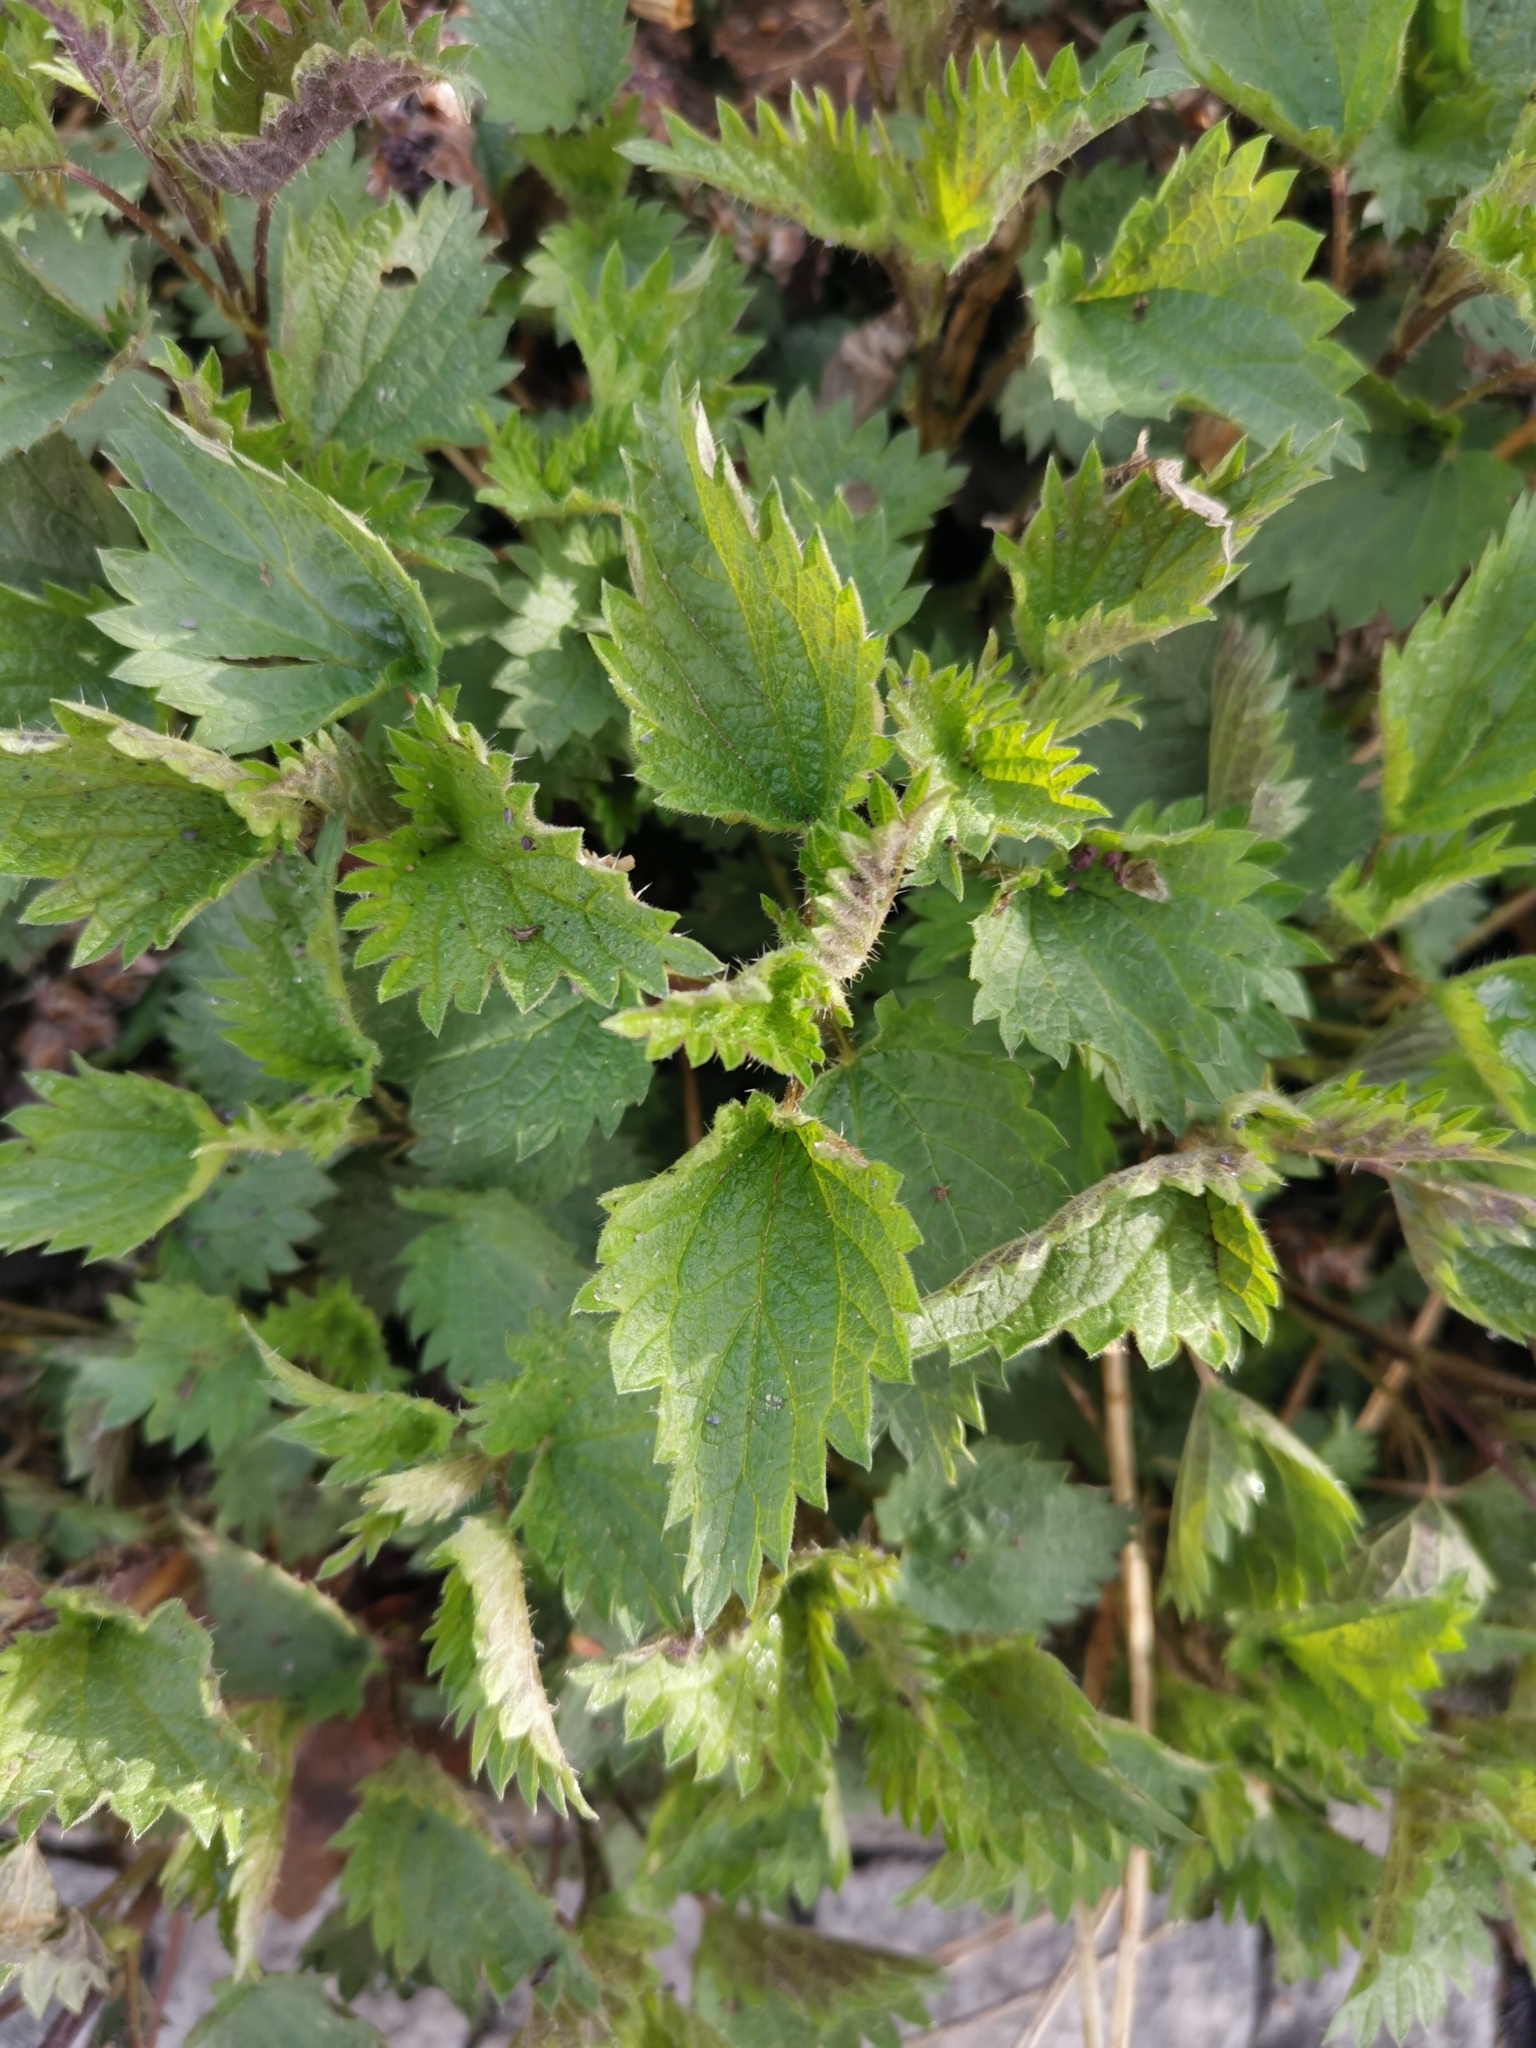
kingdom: Plantae
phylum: Tracheophyta
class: Magnoliopsida
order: Rosales
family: Urticaceae
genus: Urtica
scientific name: Urtica dioica
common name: Common nettle
